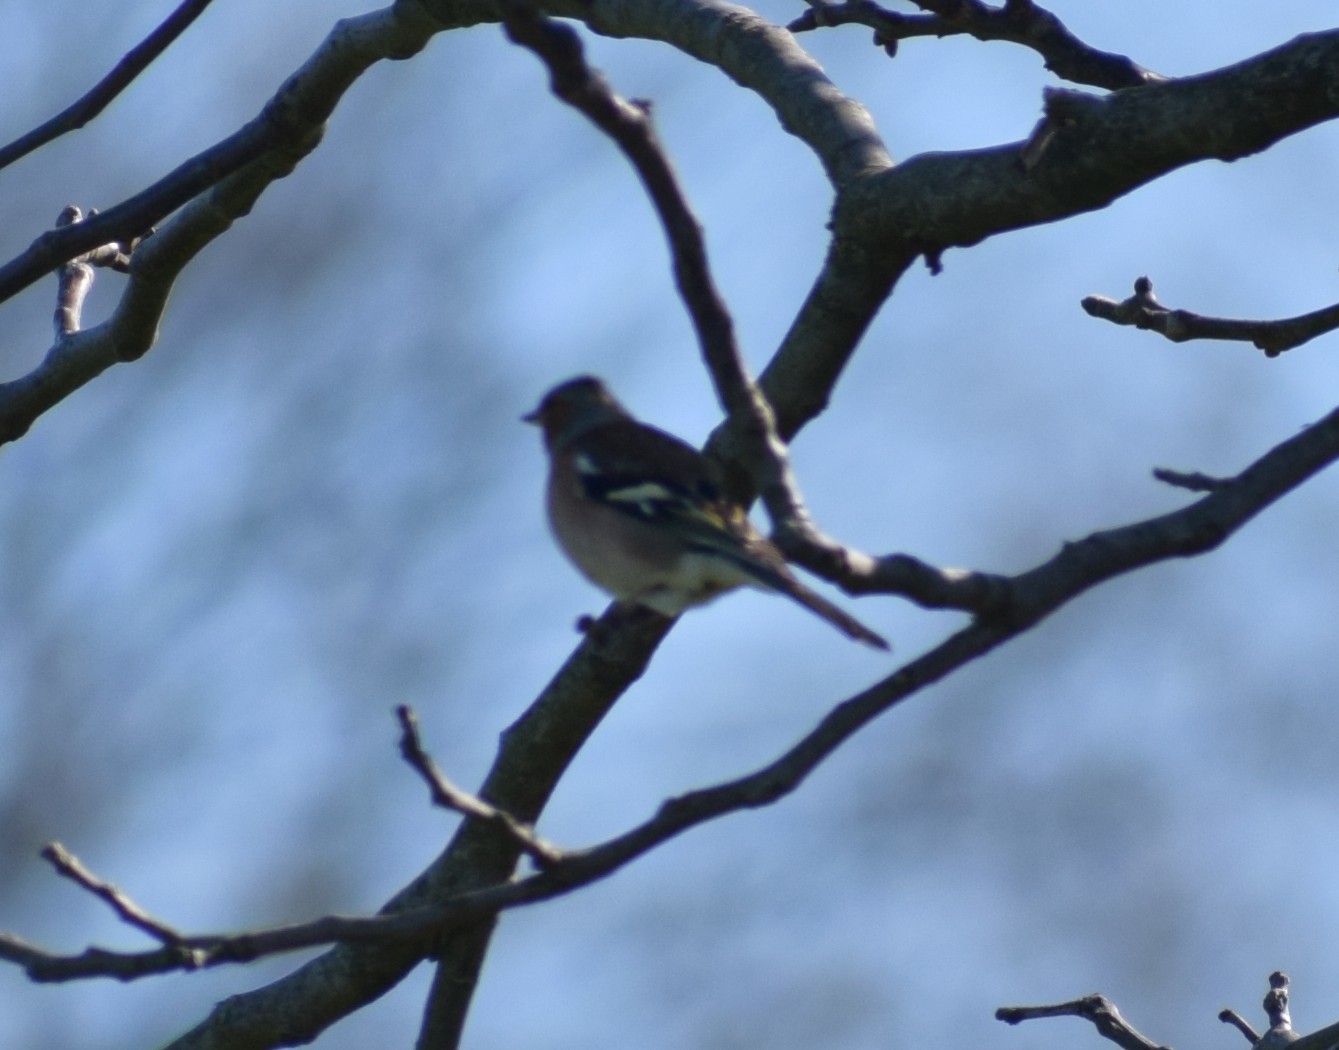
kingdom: Animalia
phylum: Chordata
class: Aves
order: Passeriformes
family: Fringillidae
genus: Fringilla
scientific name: Fringilla coelebs
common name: Common chaffinch
